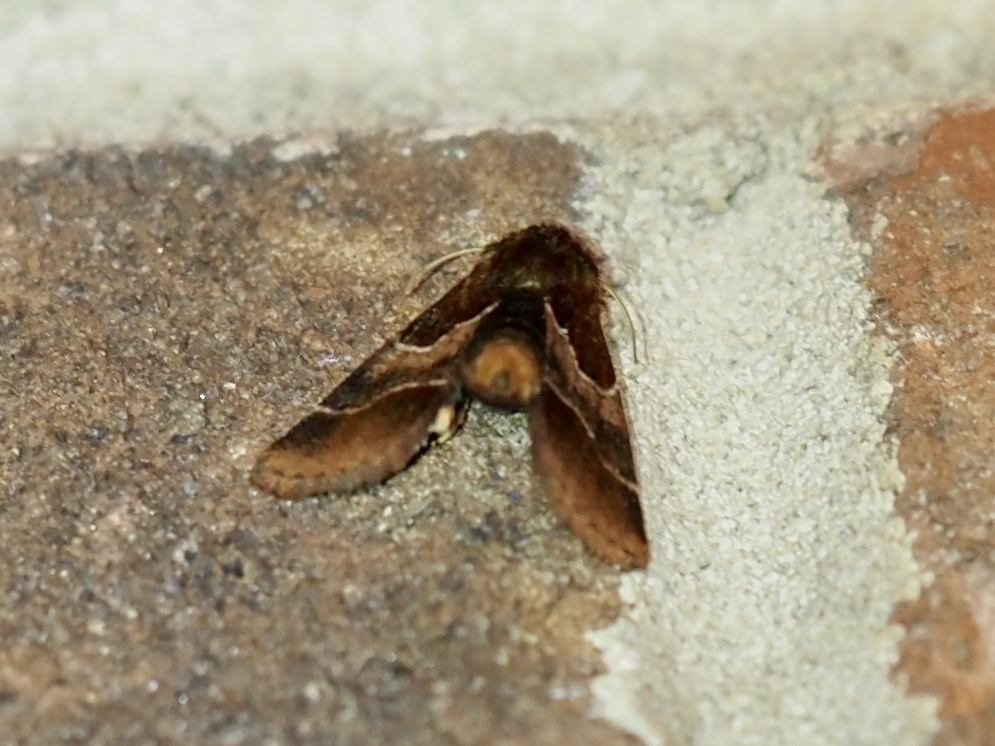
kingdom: Animalia
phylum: Arthropoda
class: Insecta
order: Lepidoptera
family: Noctuidae
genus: Schinia
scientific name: Schinia arcigera
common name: Arcigera flower moth
